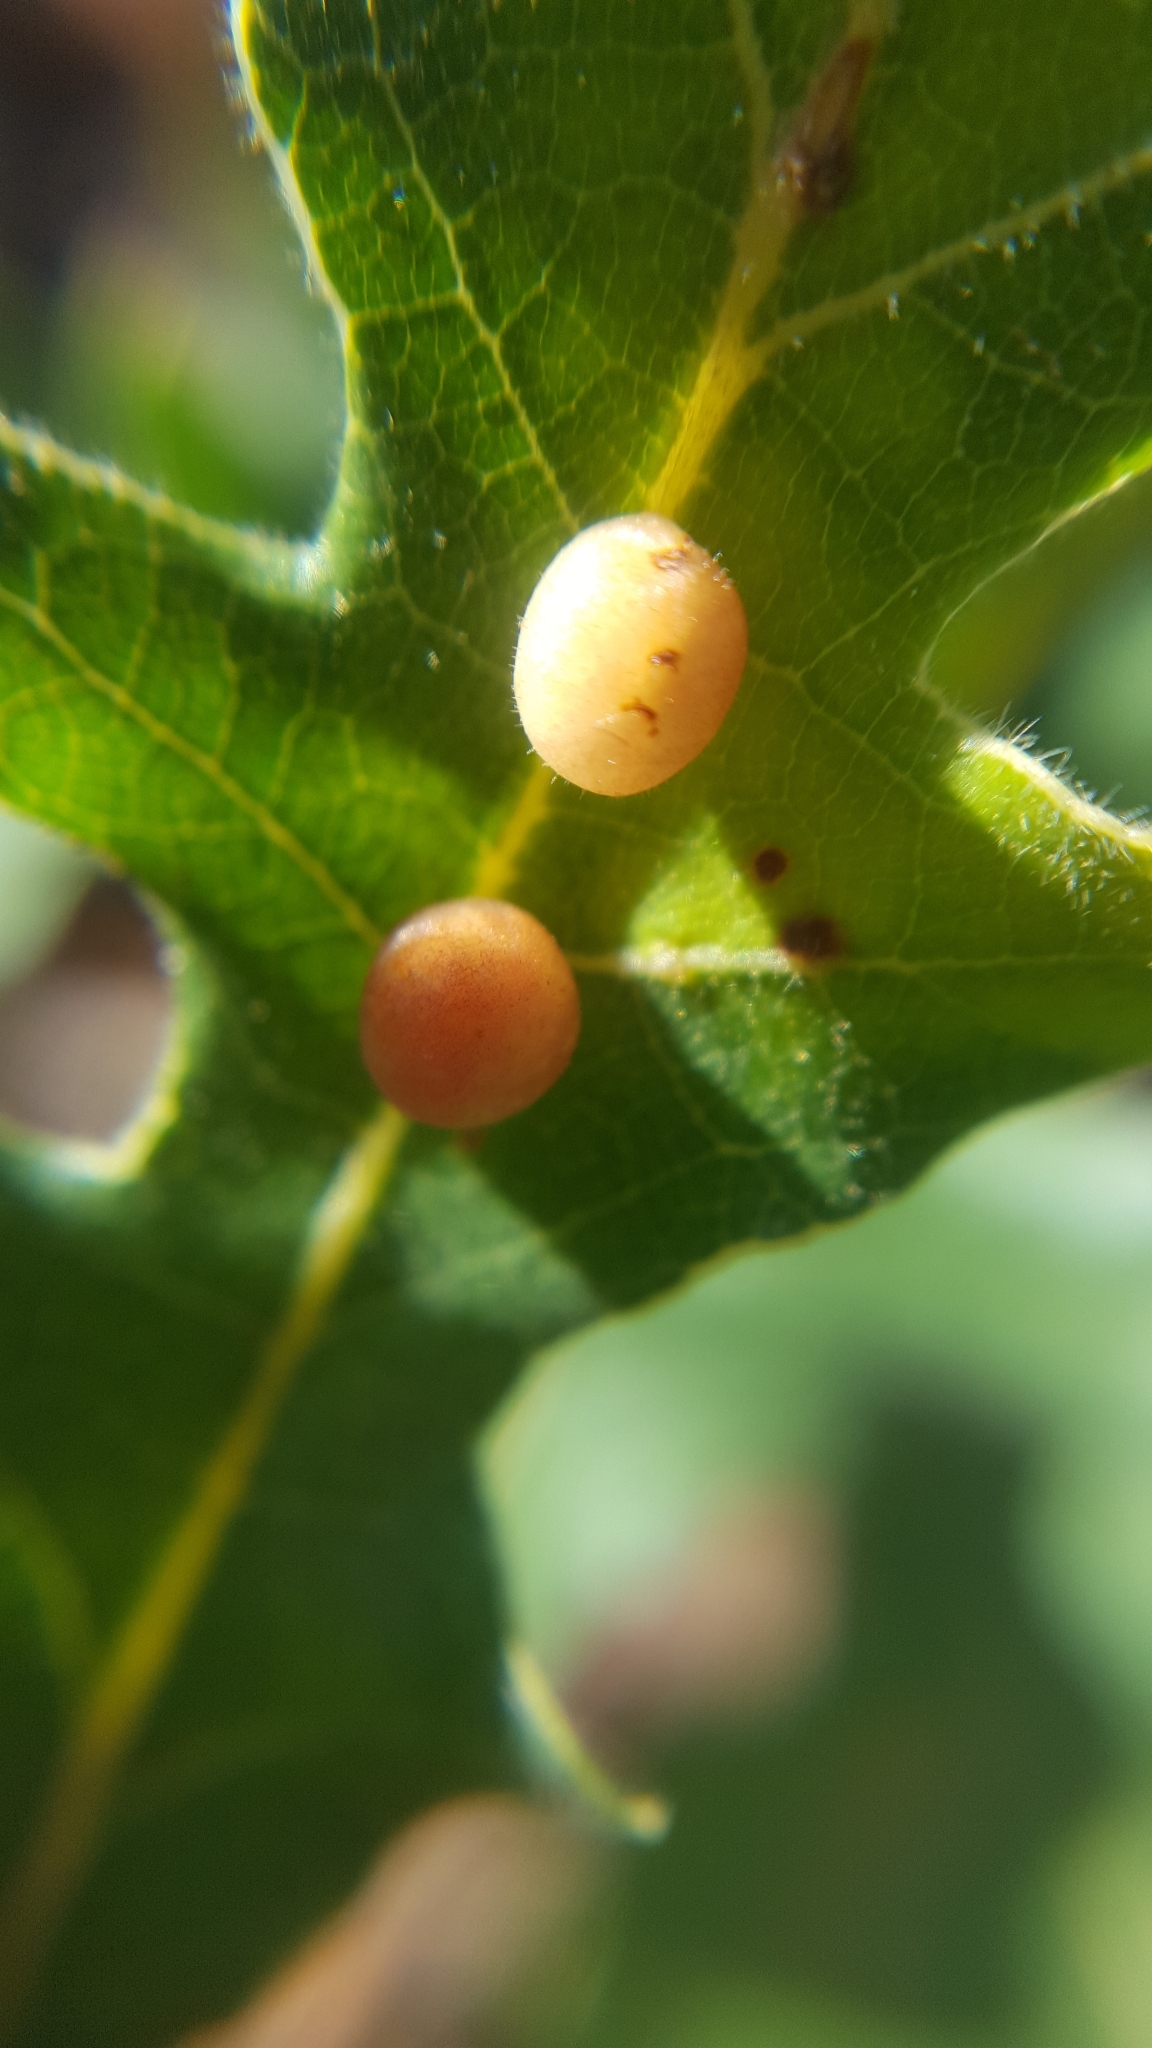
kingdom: Animalia
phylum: Arthropoda
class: Insecta
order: Hymenoptera
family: Cynipidae
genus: Trigonaspis
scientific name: Trigonaspis
